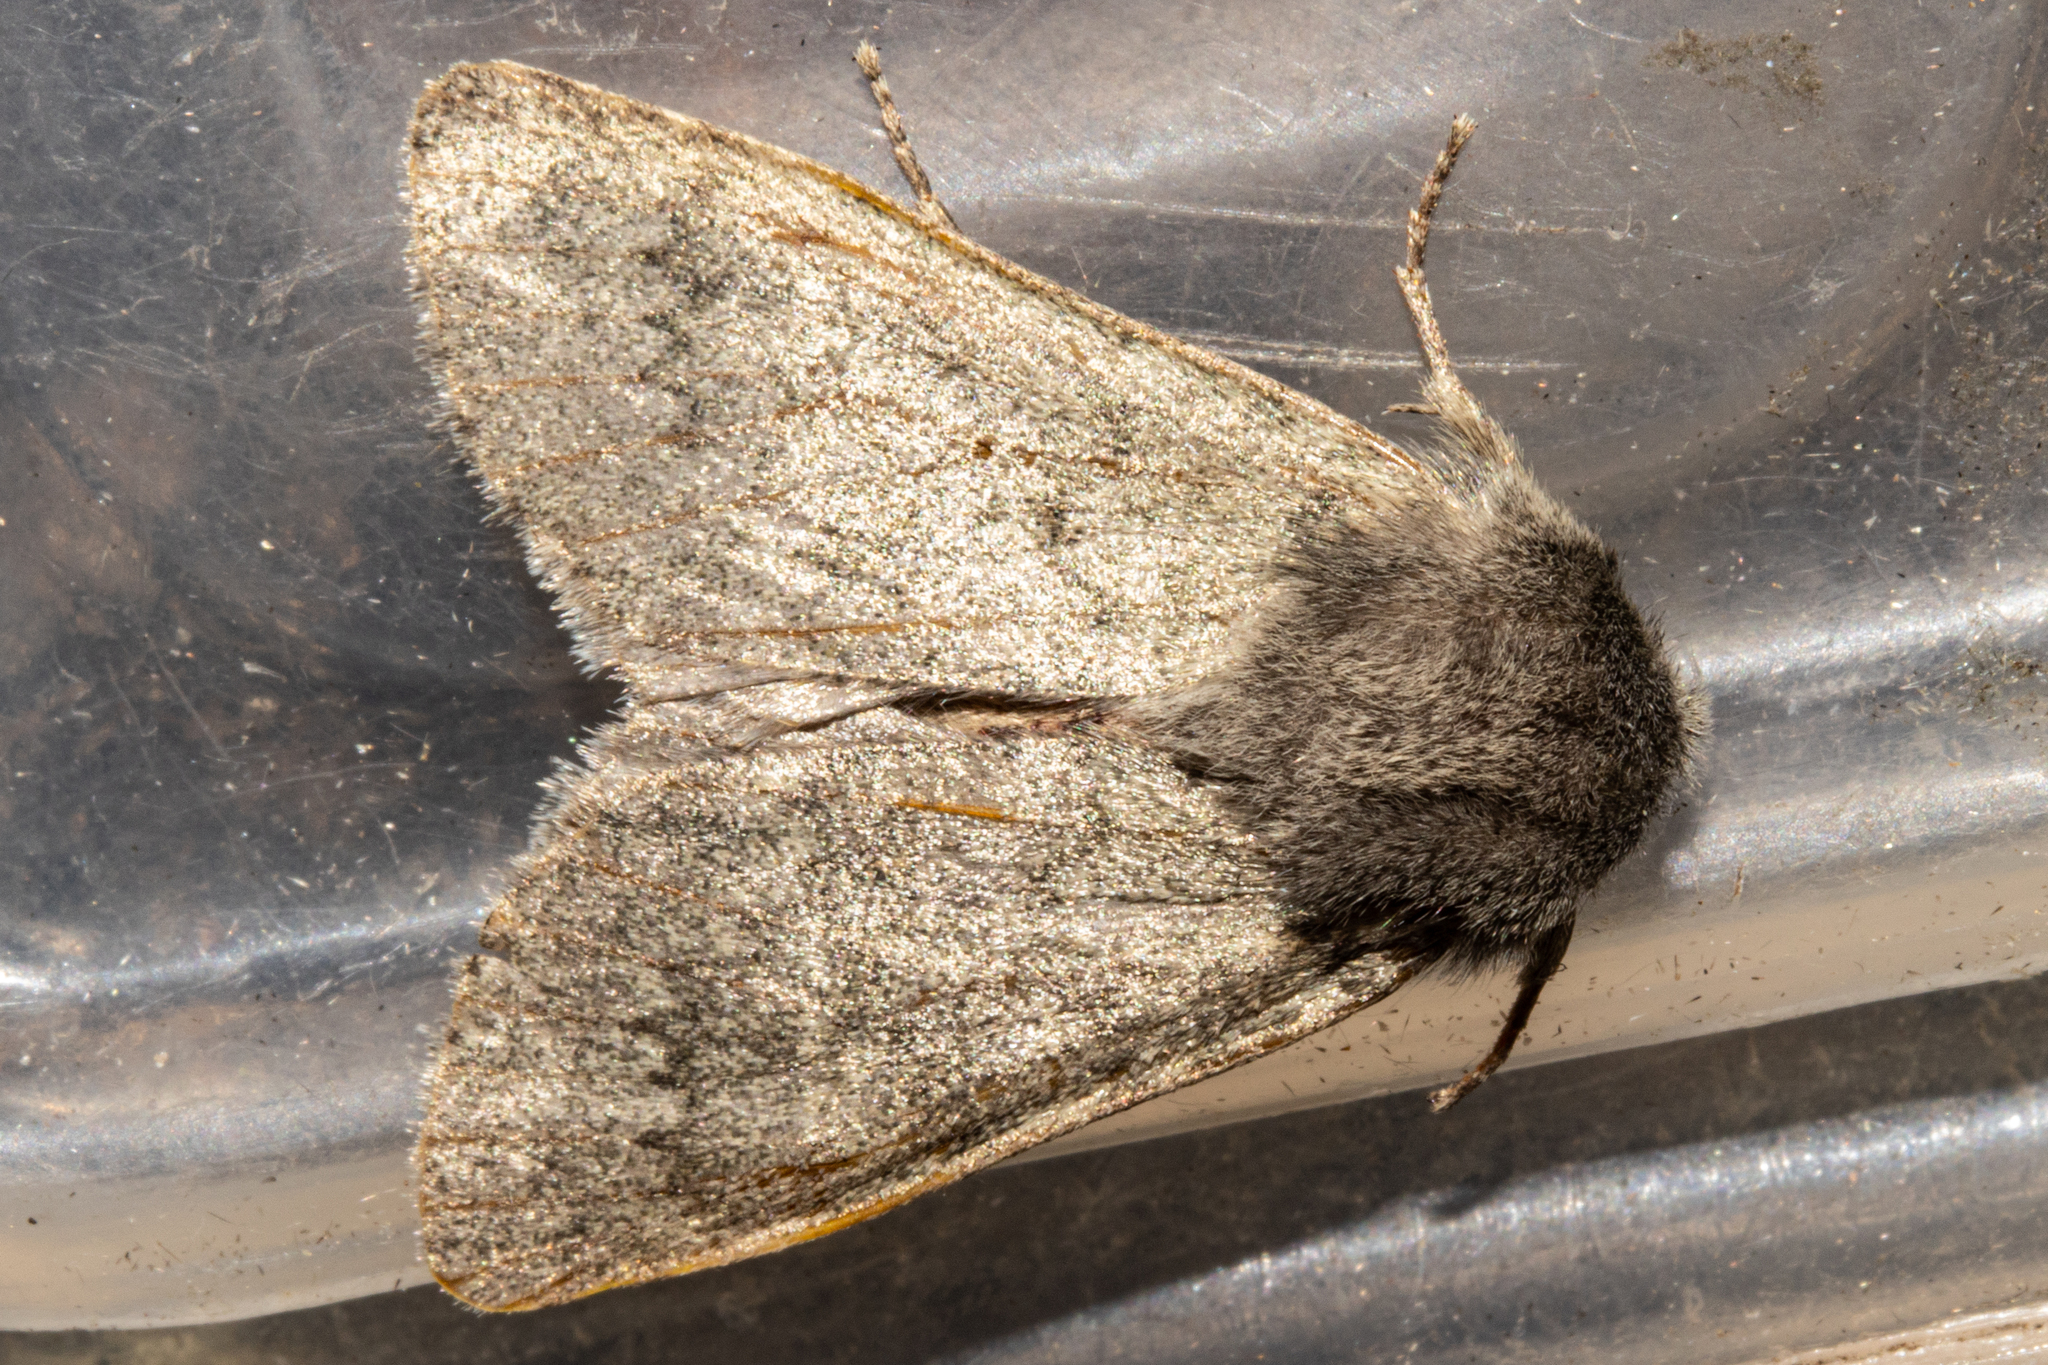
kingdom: Animalia
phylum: Arthropoda
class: Insecta
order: Lepidoptera
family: Noctuidae
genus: Ichneutica
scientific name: Ichneutica
